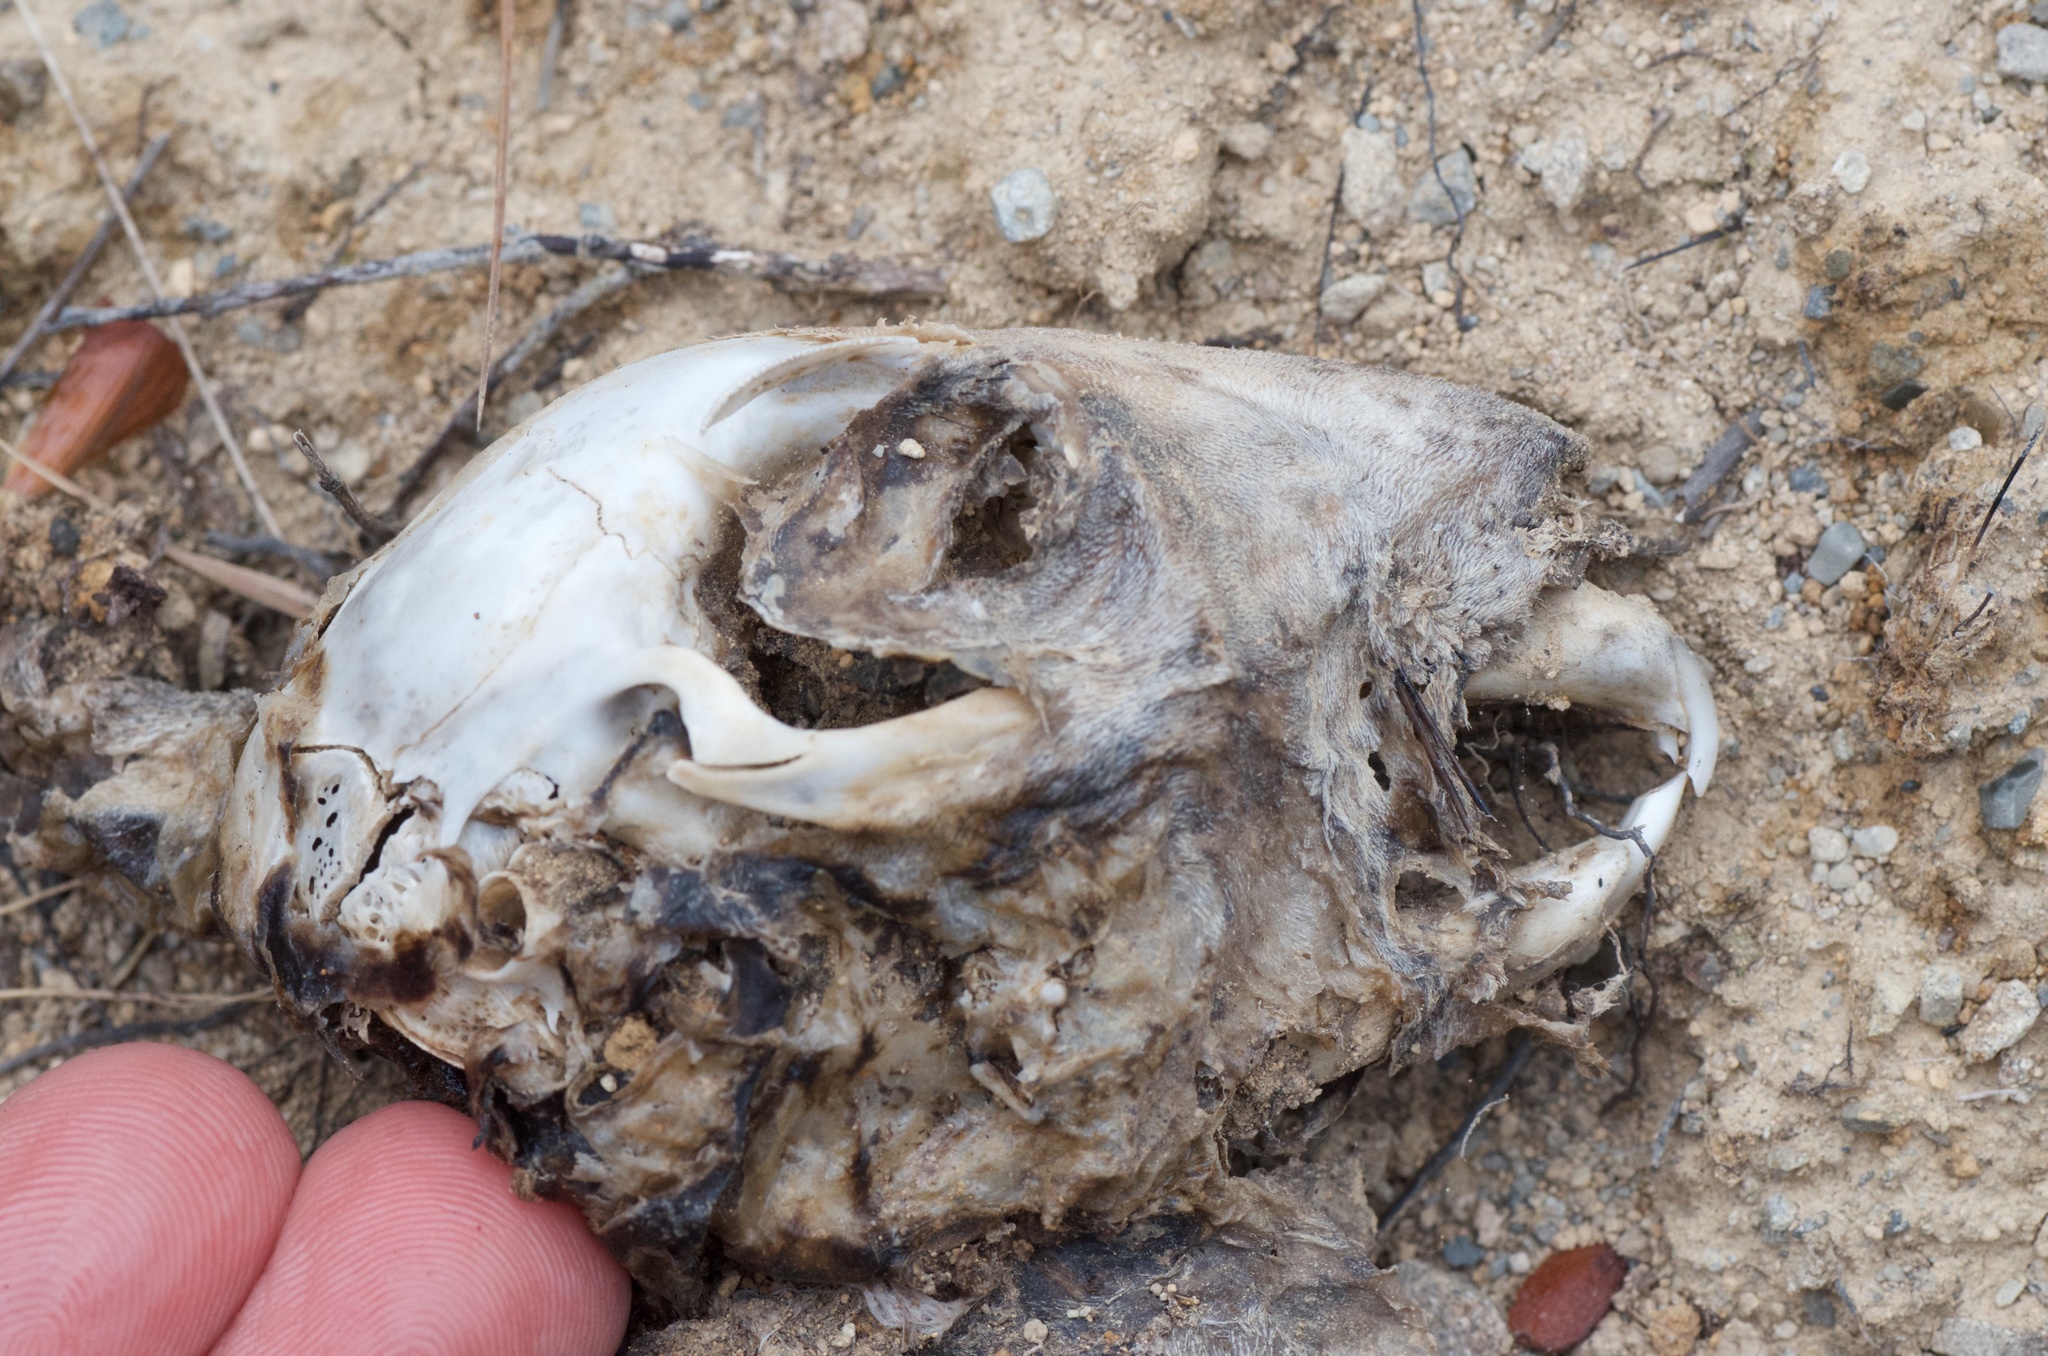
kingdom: Animalia
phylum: Chordata
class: Mammalia
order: Lagomorpha
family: Leporidae
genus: Lepus
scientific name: Lepus europaeus
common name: European hare
